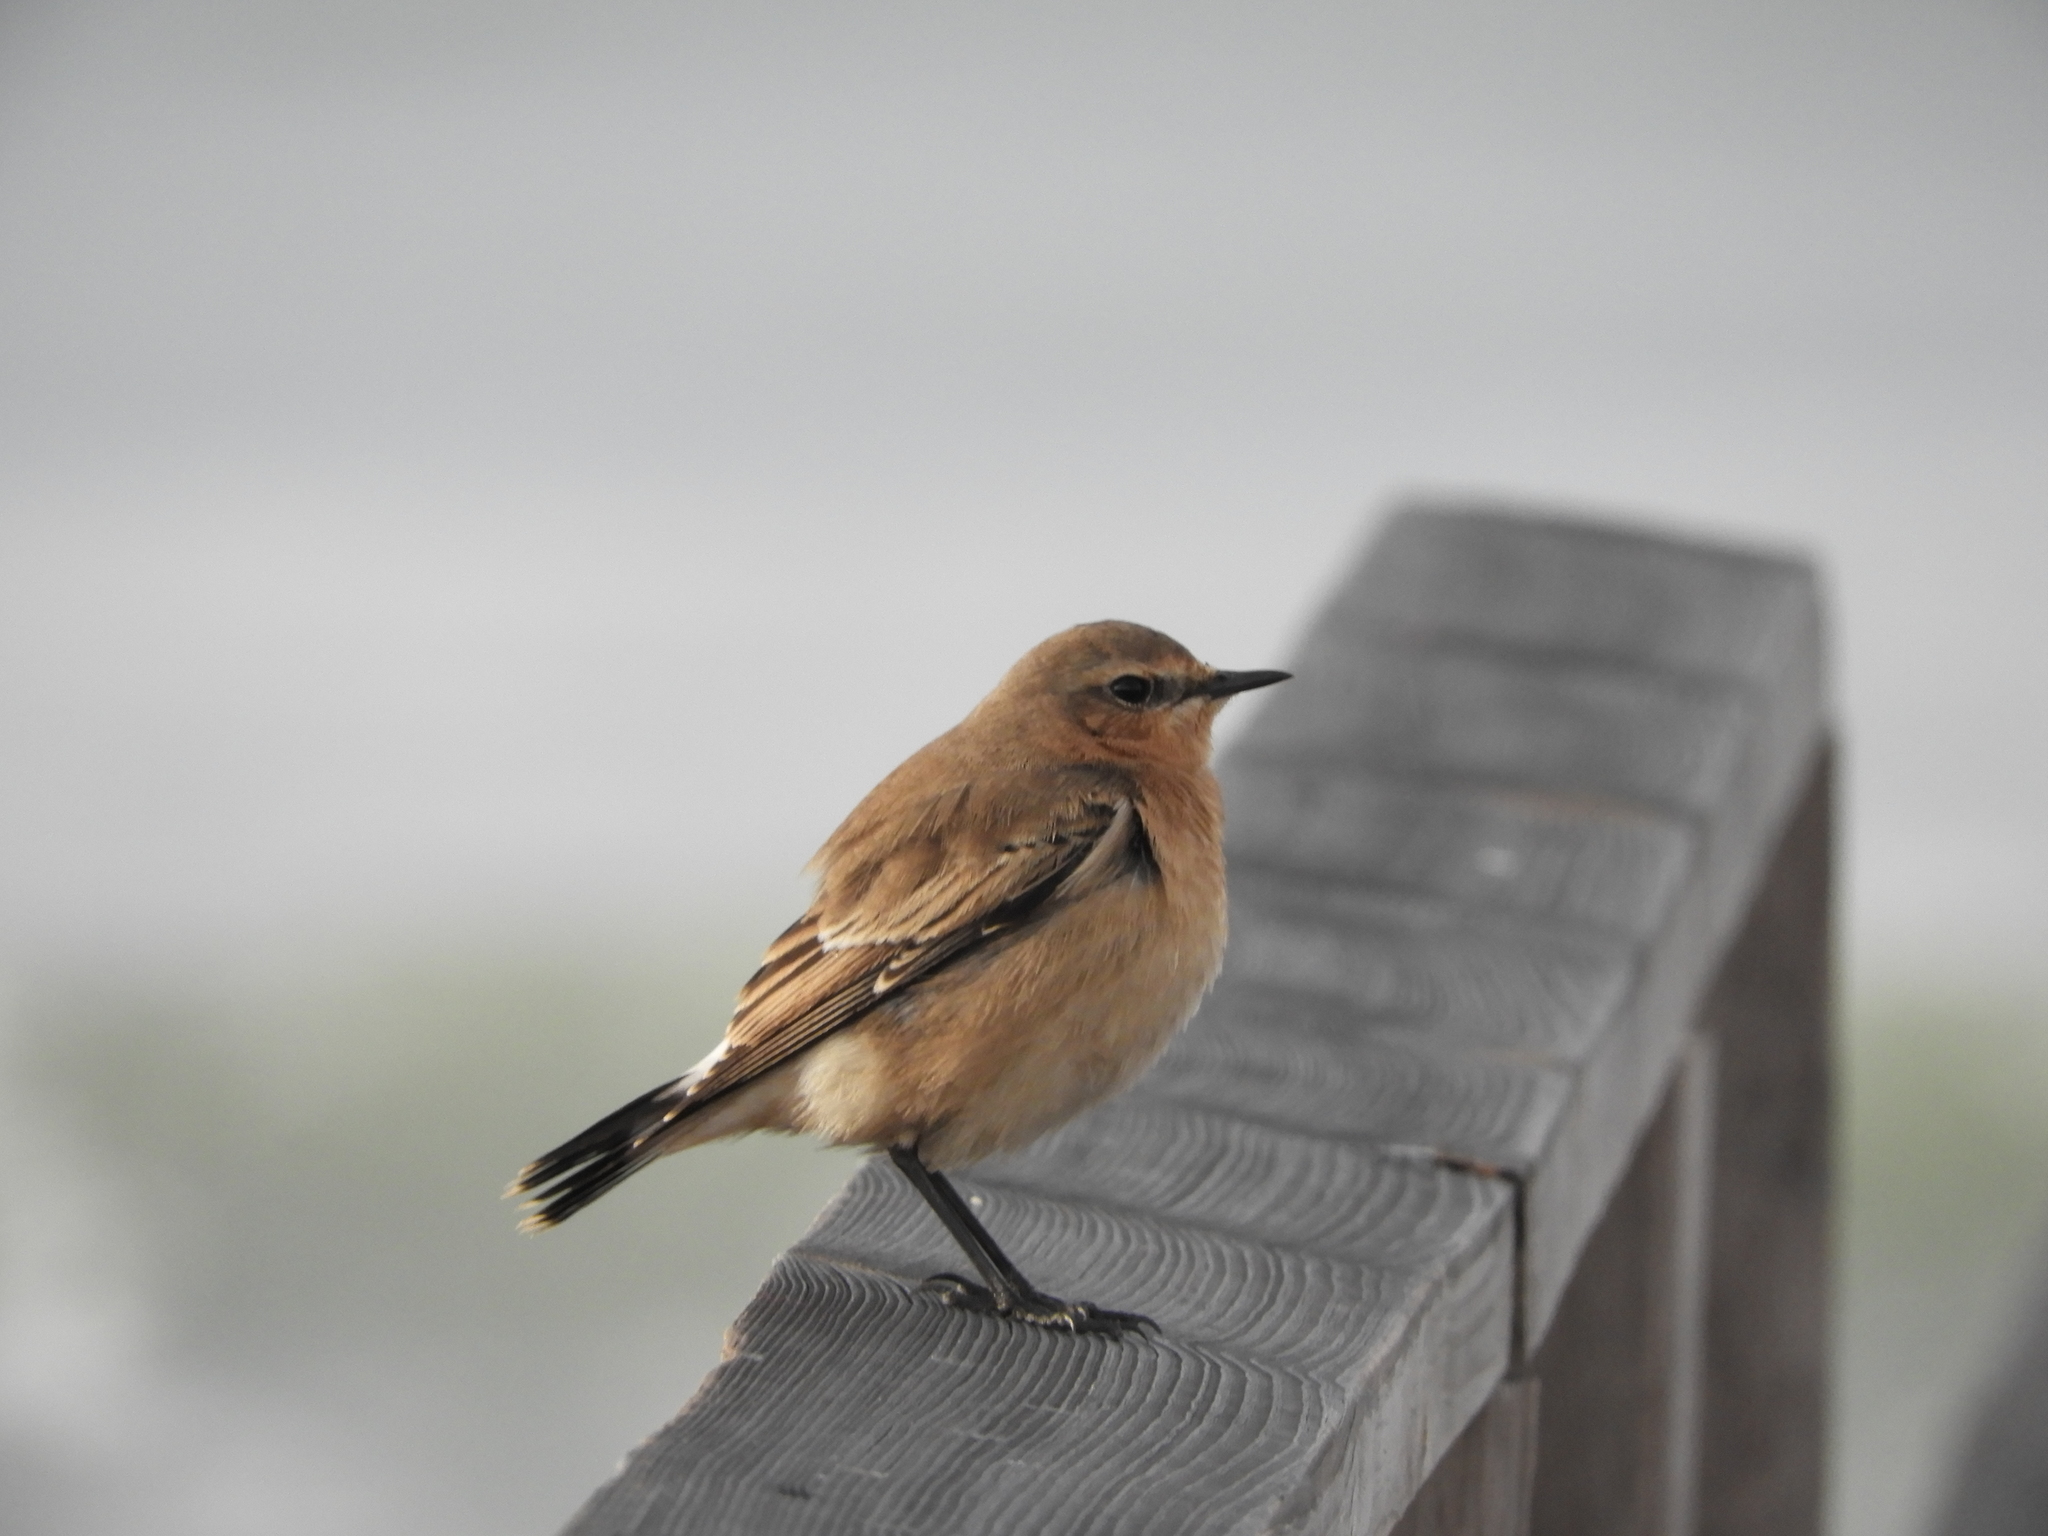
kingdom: Animalia
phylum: Chordata
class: Aves
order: Passeriformes
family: Muscicapidae
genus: Oenanthe
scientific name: Oenanthe oenanthe
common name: Northern wheatear
